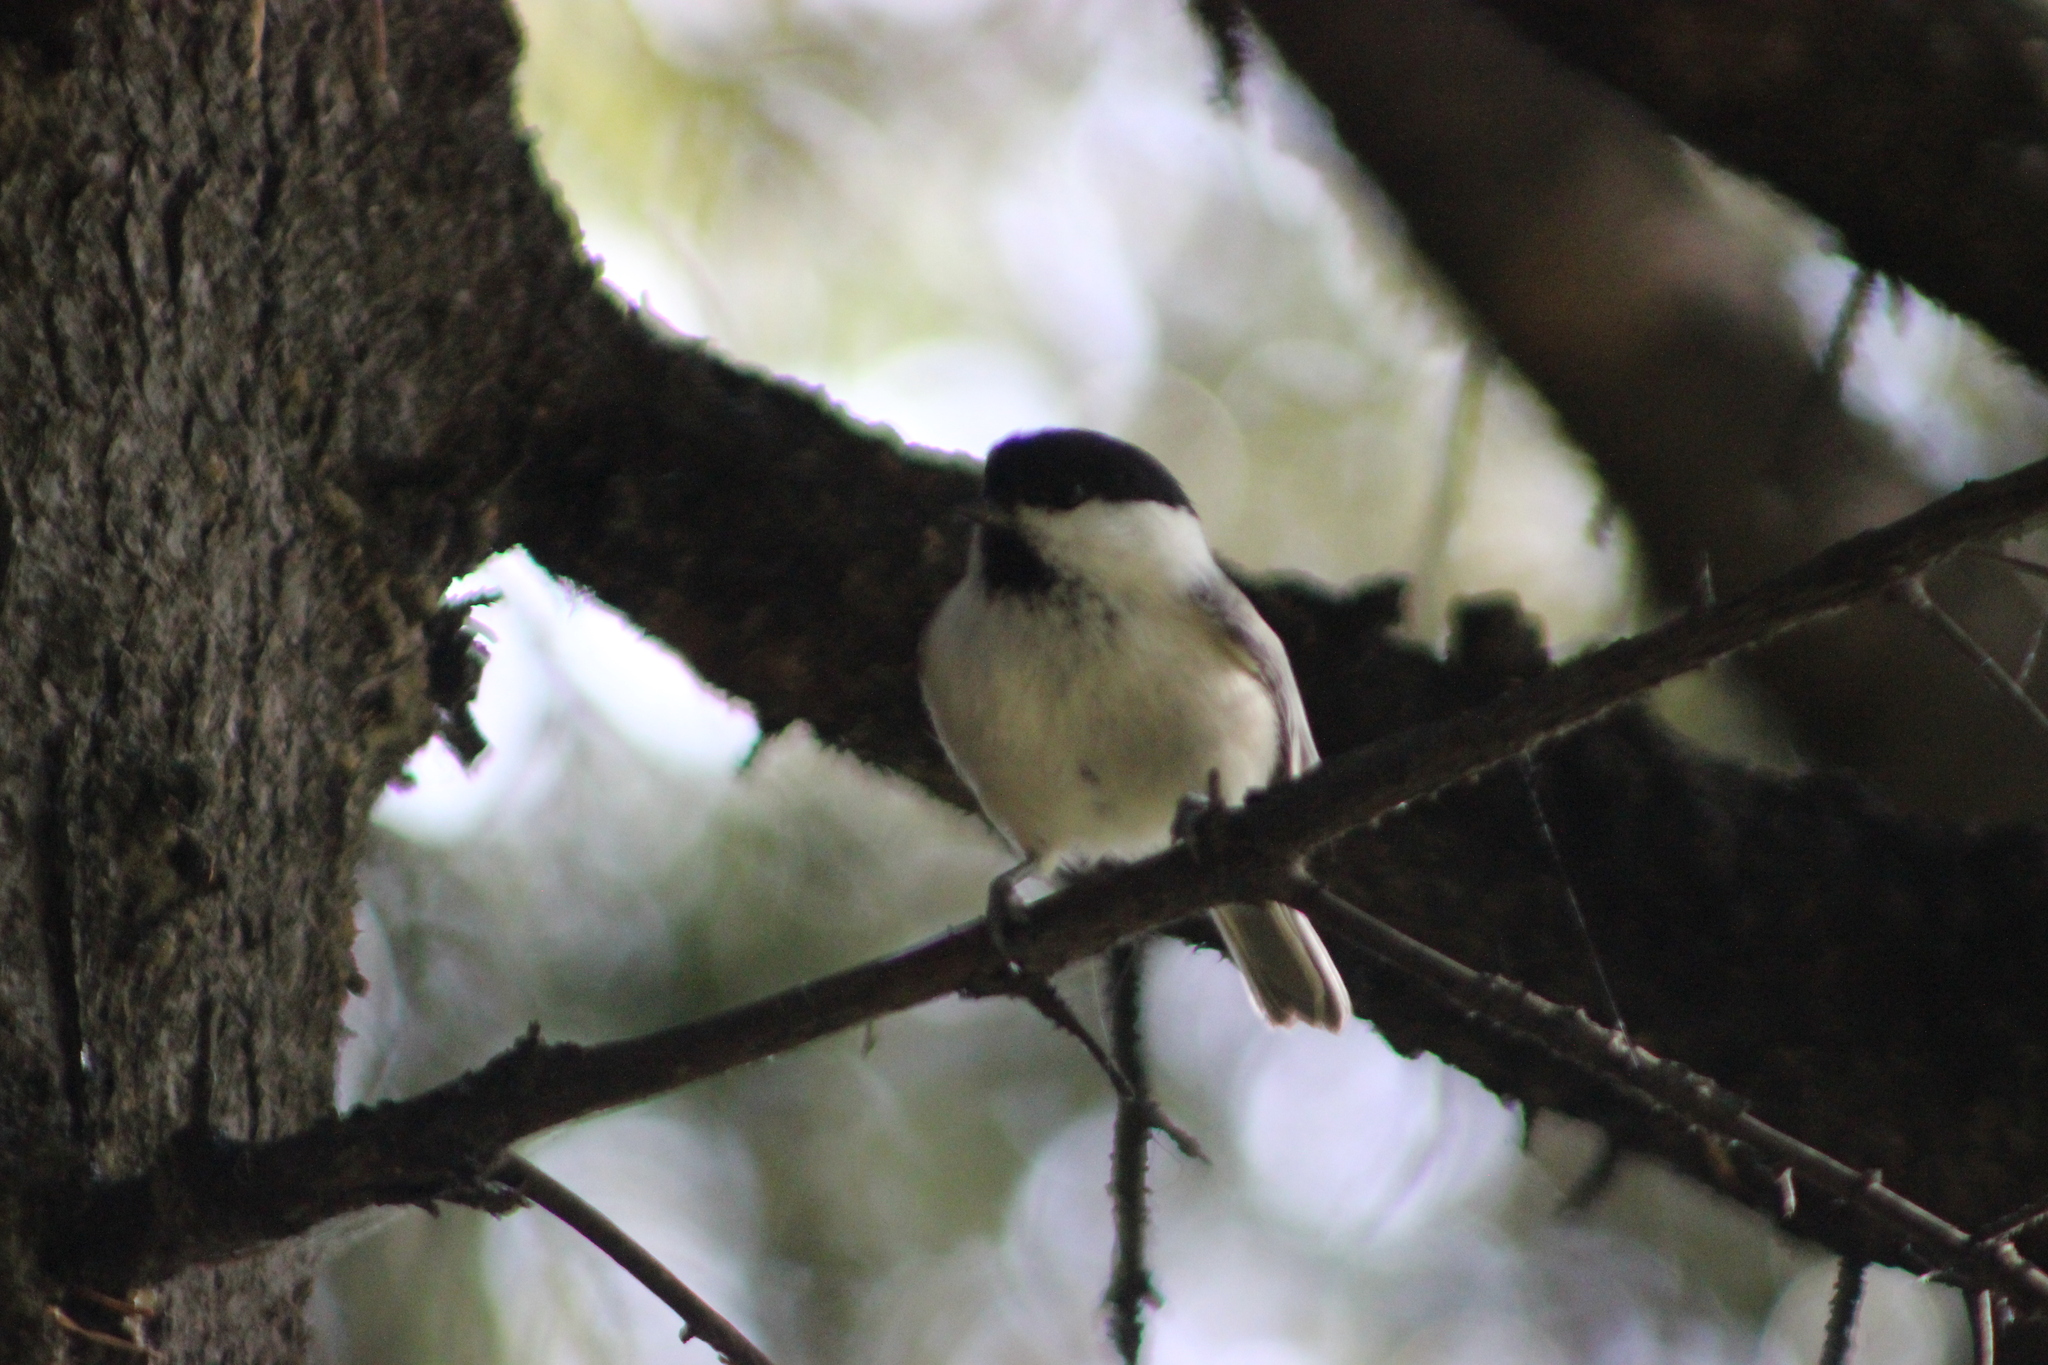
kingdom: Animalia
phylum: Chordata
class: Aves
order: Passeriformes
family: Paridae
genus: Poecile
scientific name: Poecile montanus
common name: Willow tit
